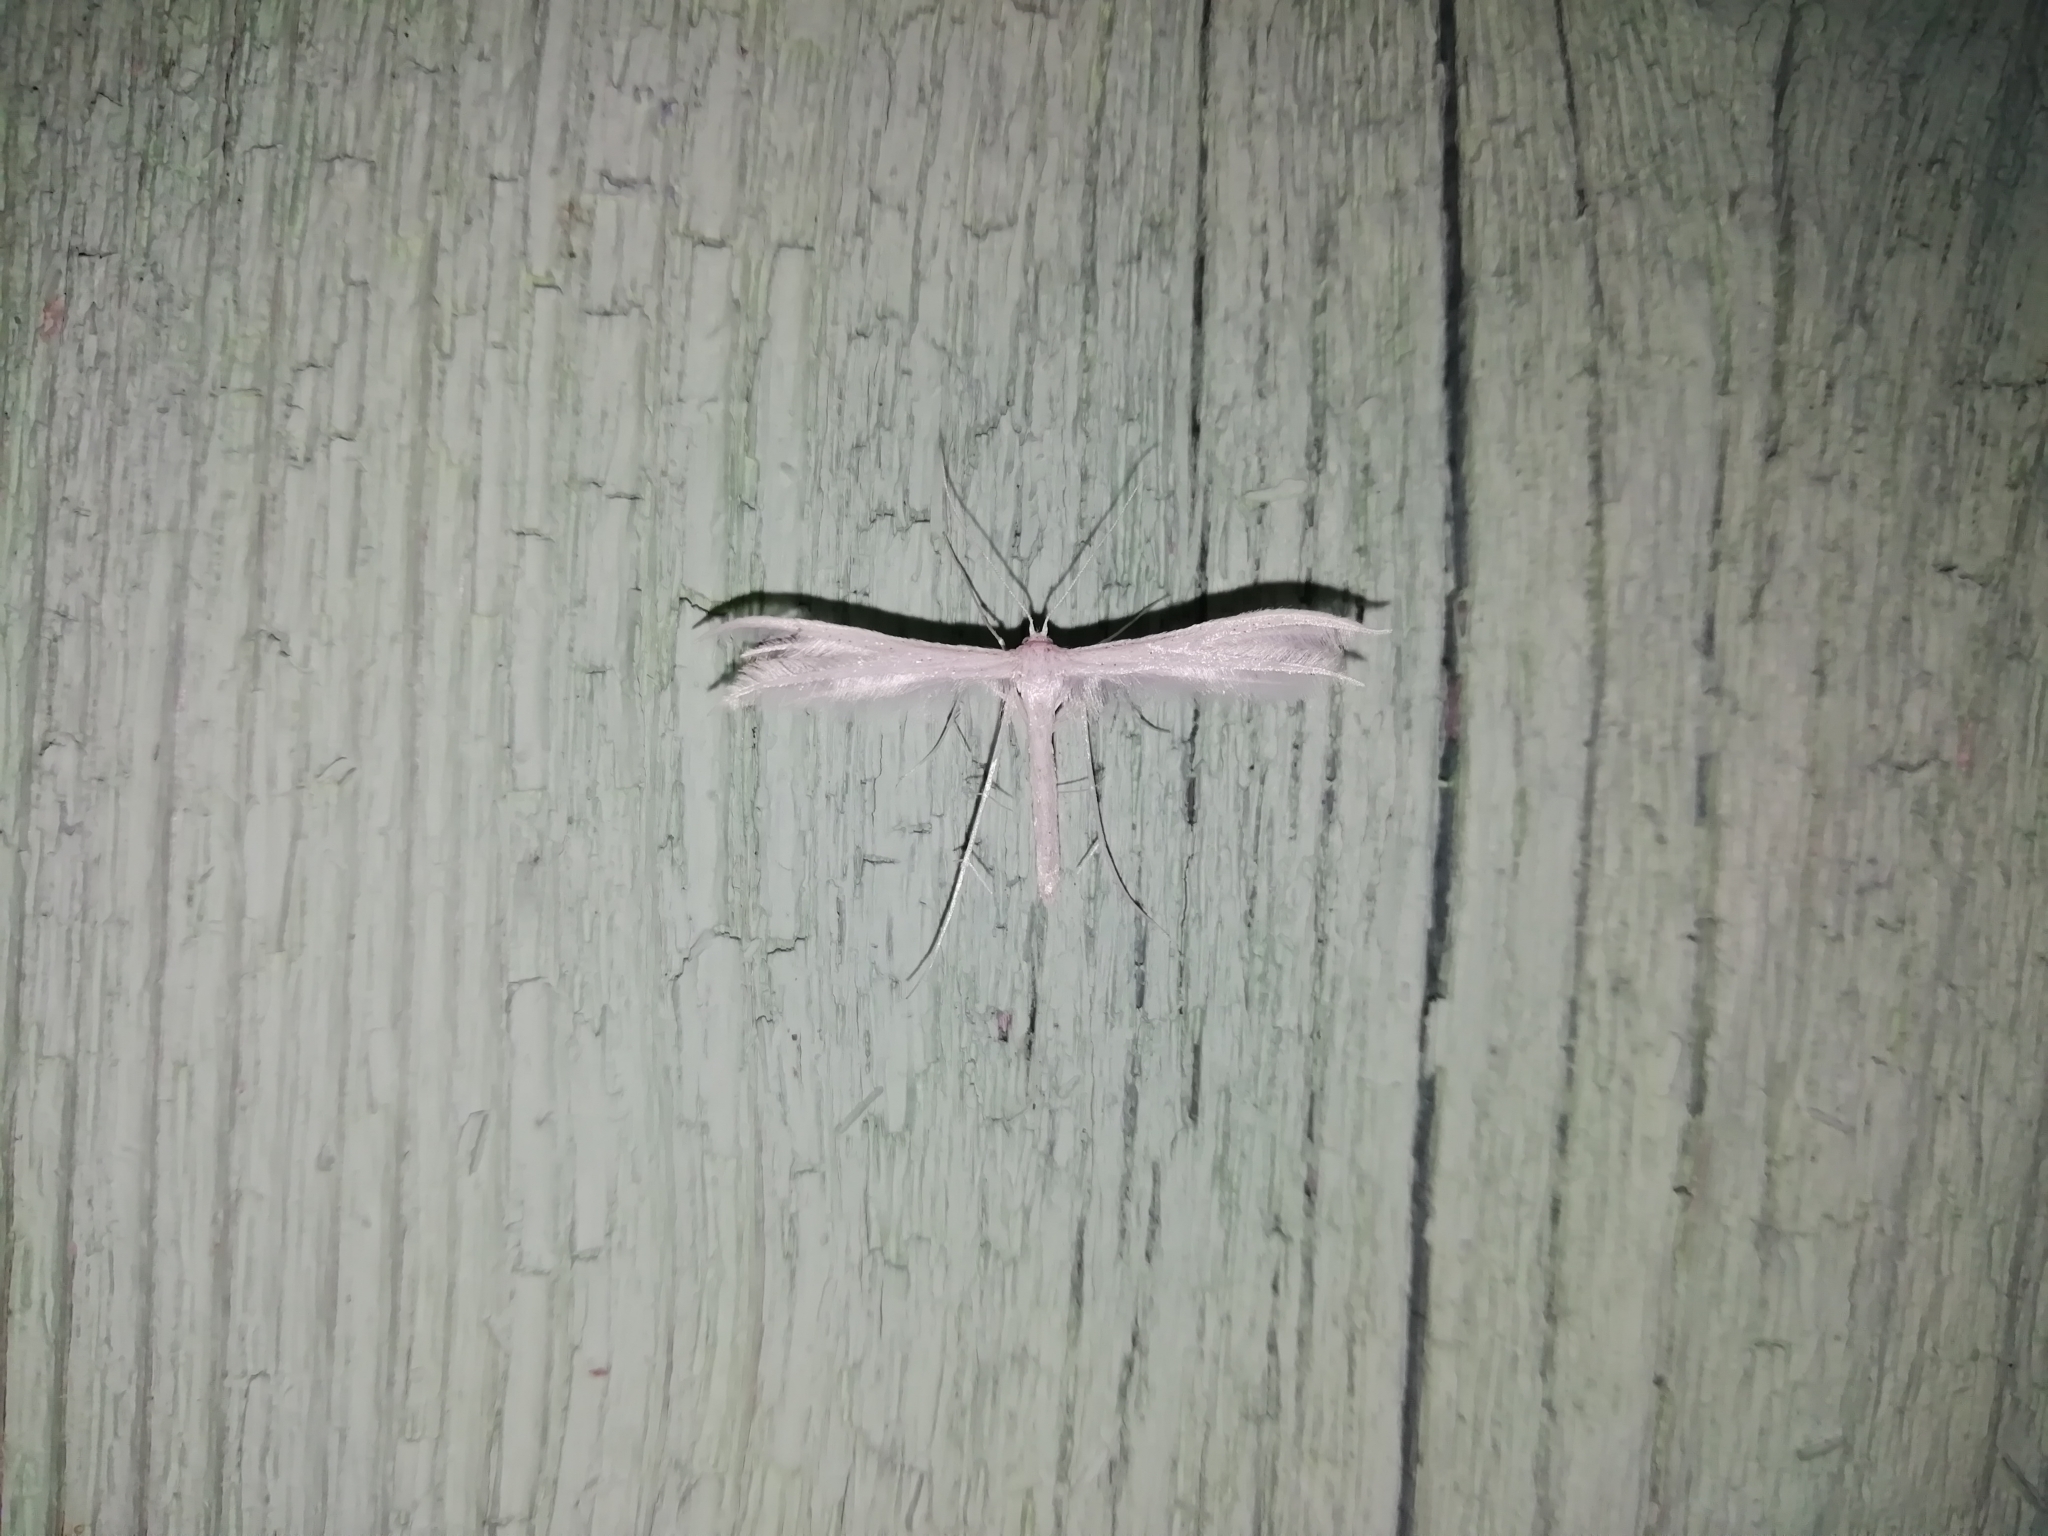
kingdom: Animalia
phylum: Arthropoda
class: Insecta
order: Lepidoptera
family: Pterophoridae
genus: Pterophorus
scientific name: Pterophorus pentadactyla
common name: White plume moth
